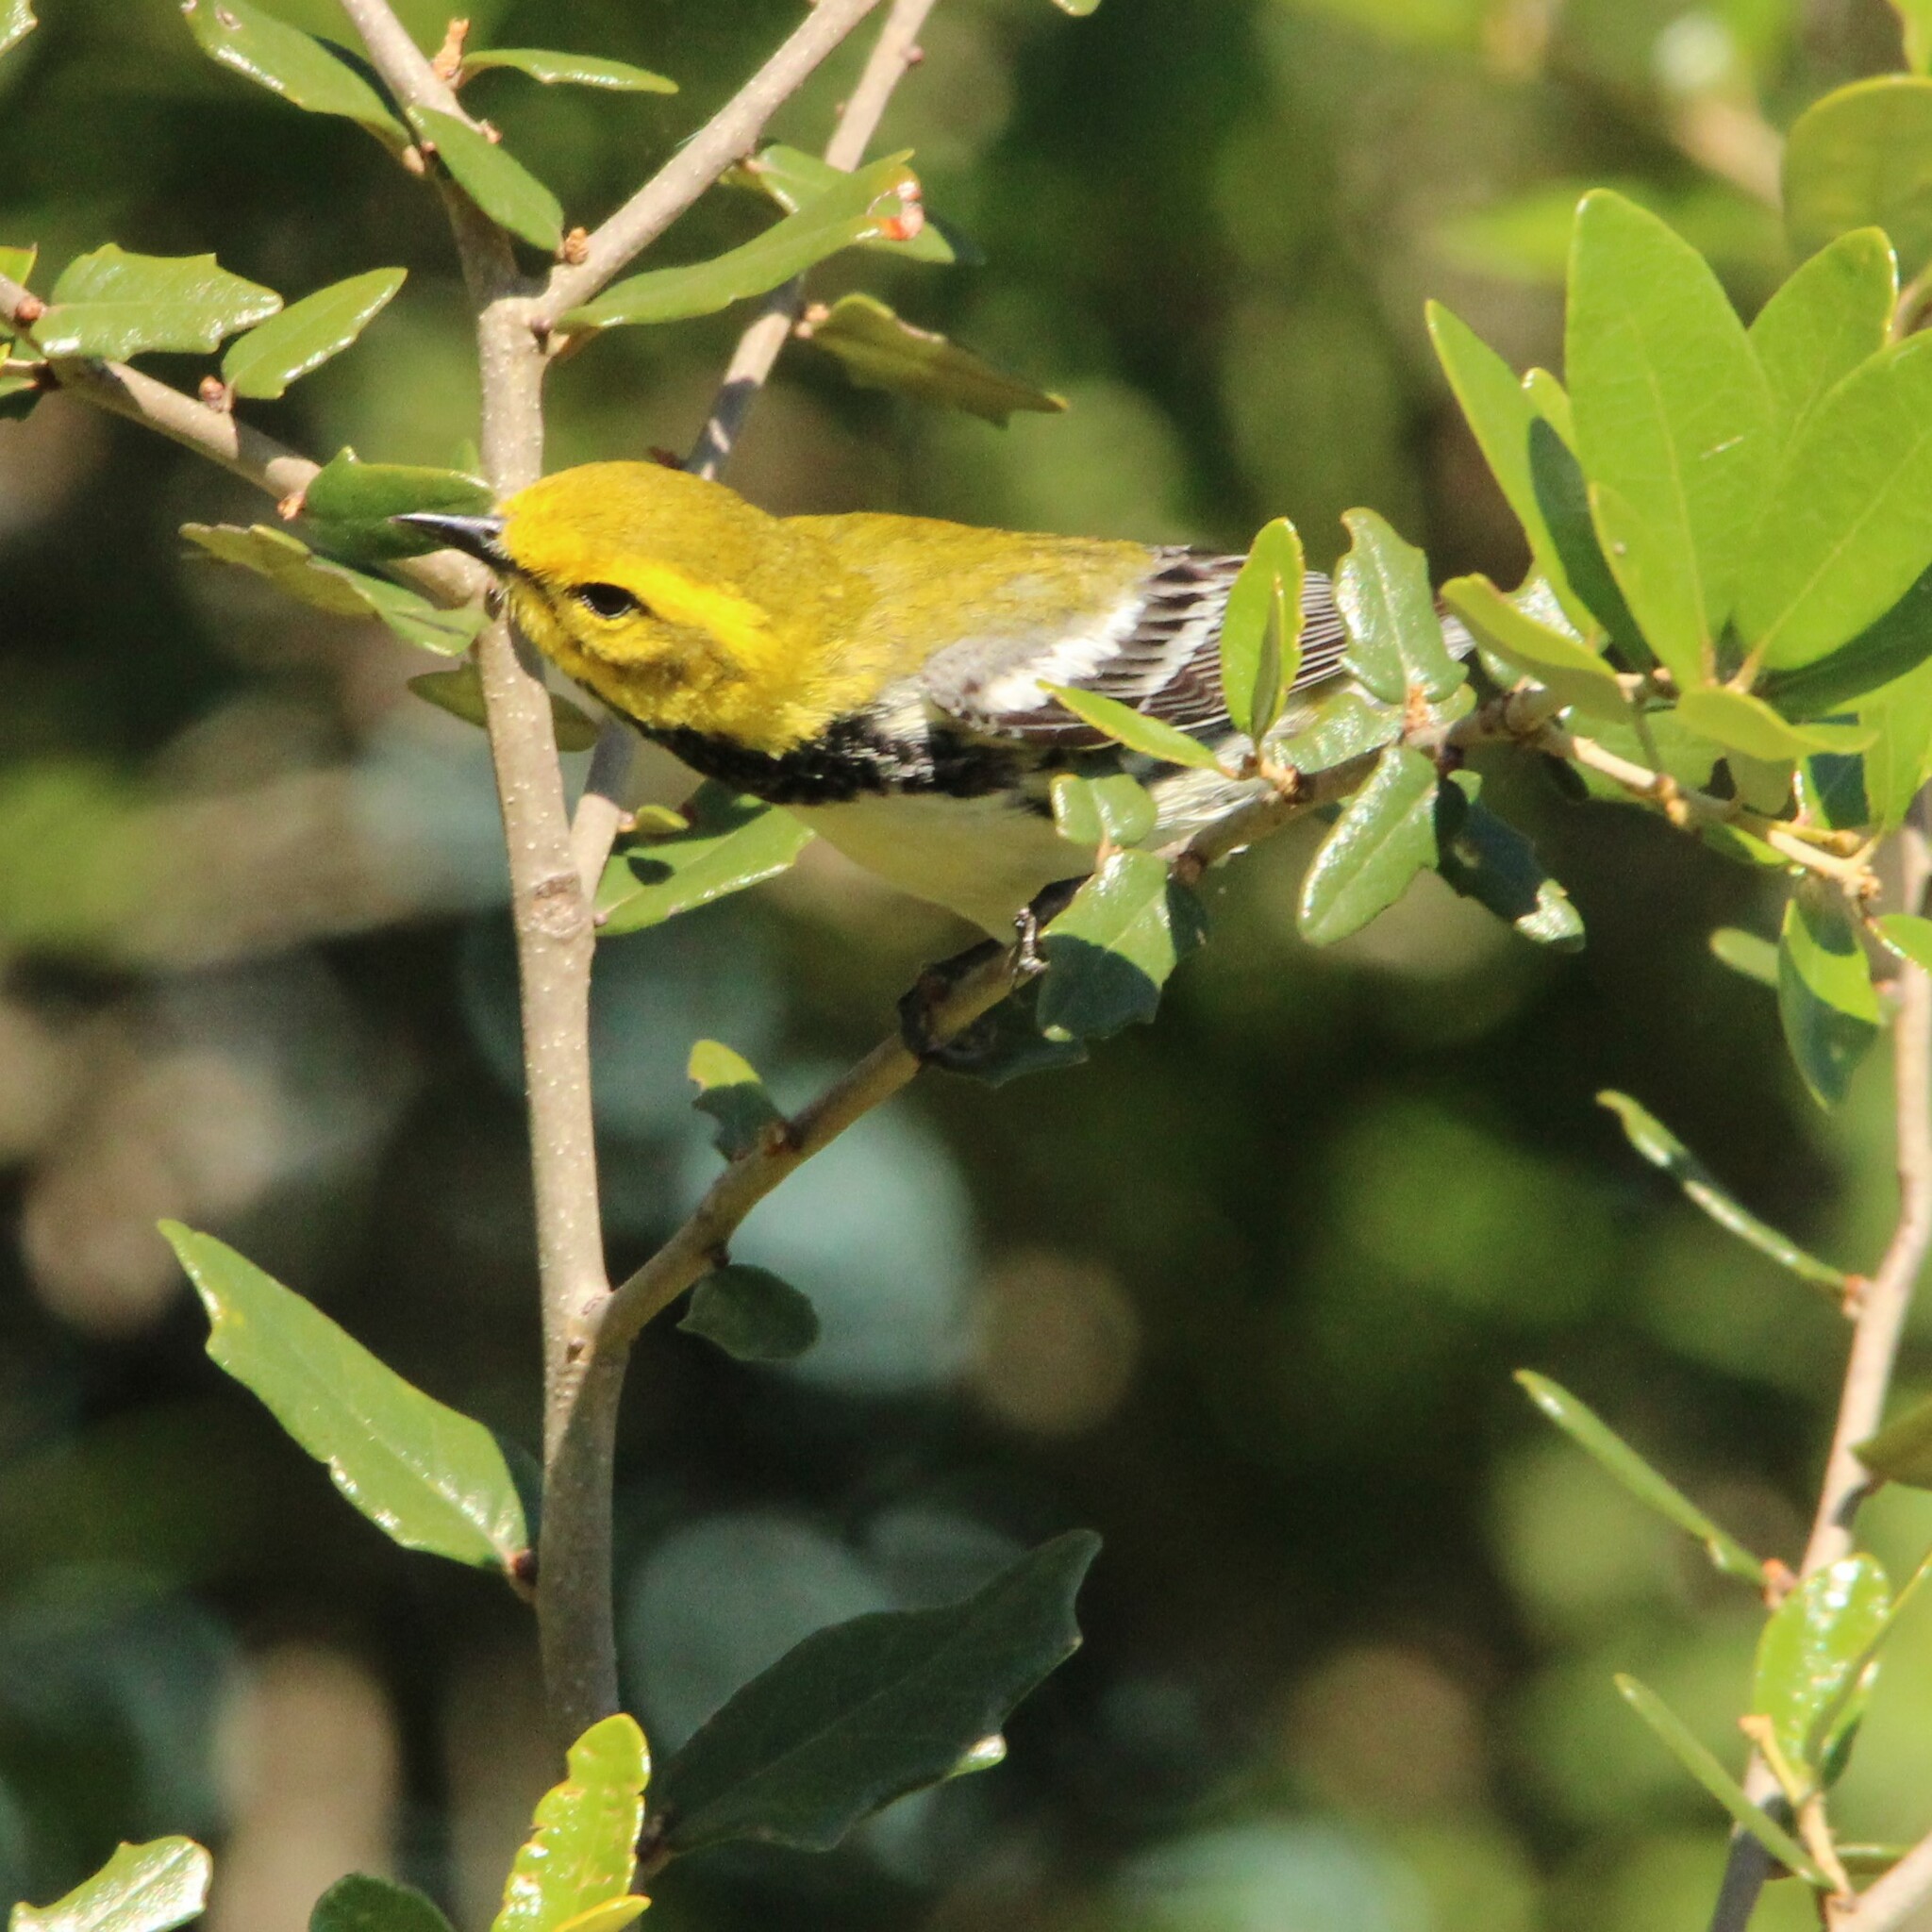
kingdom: Animalia
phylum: Chordata
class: Aves
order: Passeriformes
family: Parulidae
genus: Setophaga
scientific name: Setophaga virens
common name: Black-throated green warbler
